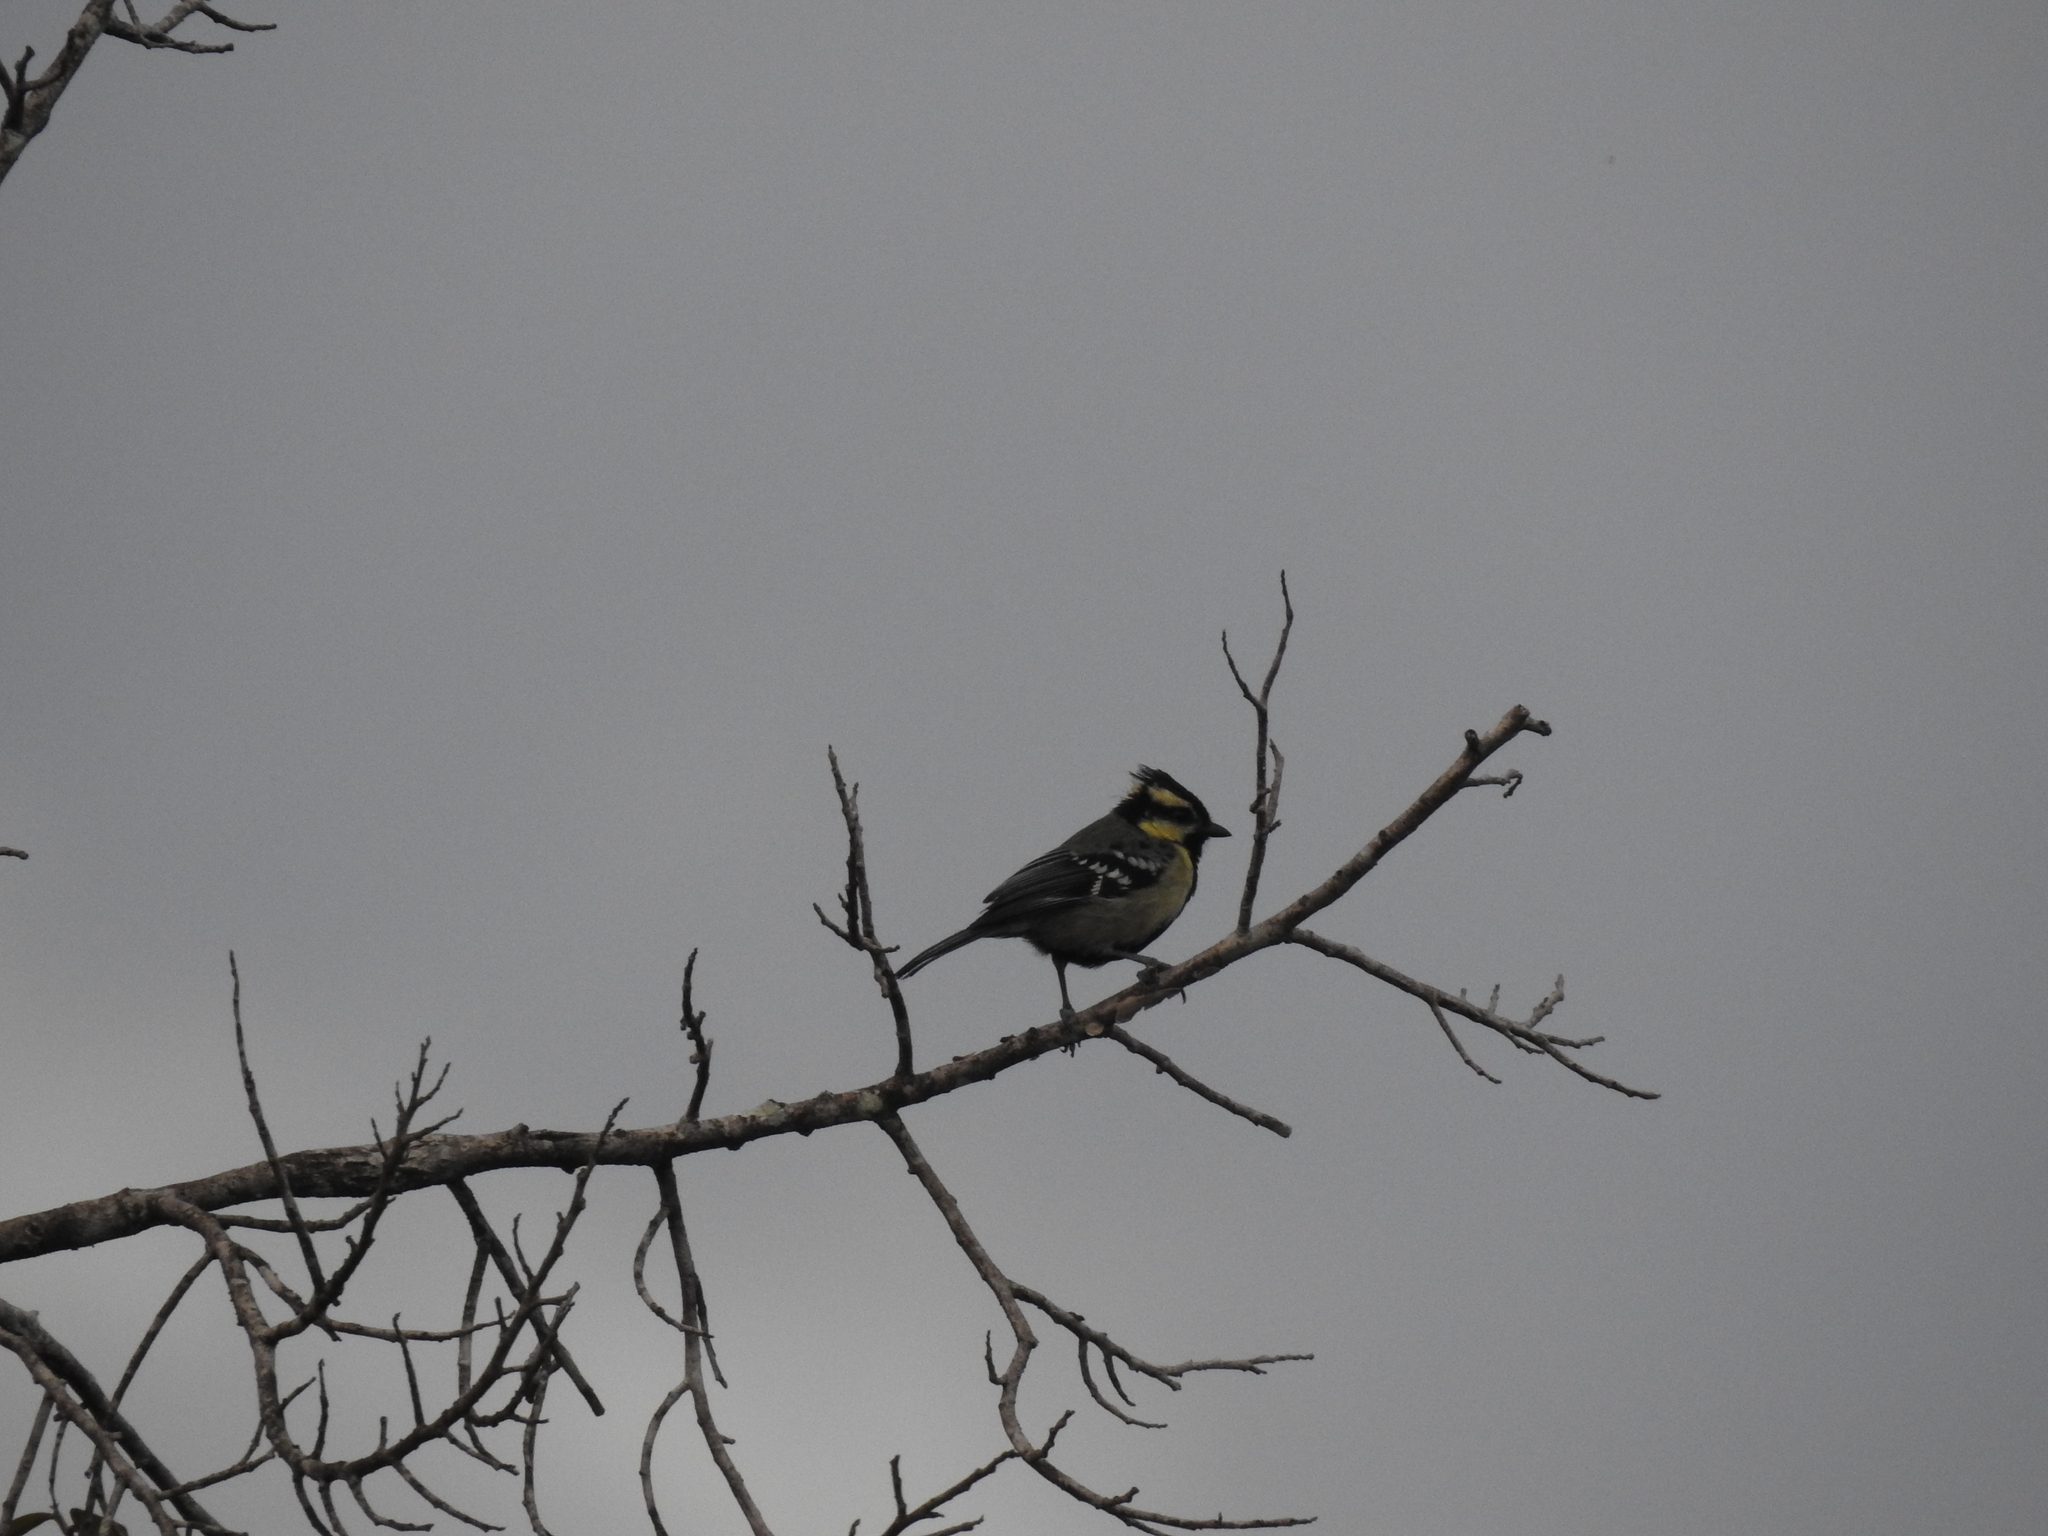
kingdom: Animalia
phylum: Chordata
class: Aves
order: Passeriformes
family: Paridae
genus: Parus
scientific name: Parus aplonotus
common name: Indian black-lored tit
